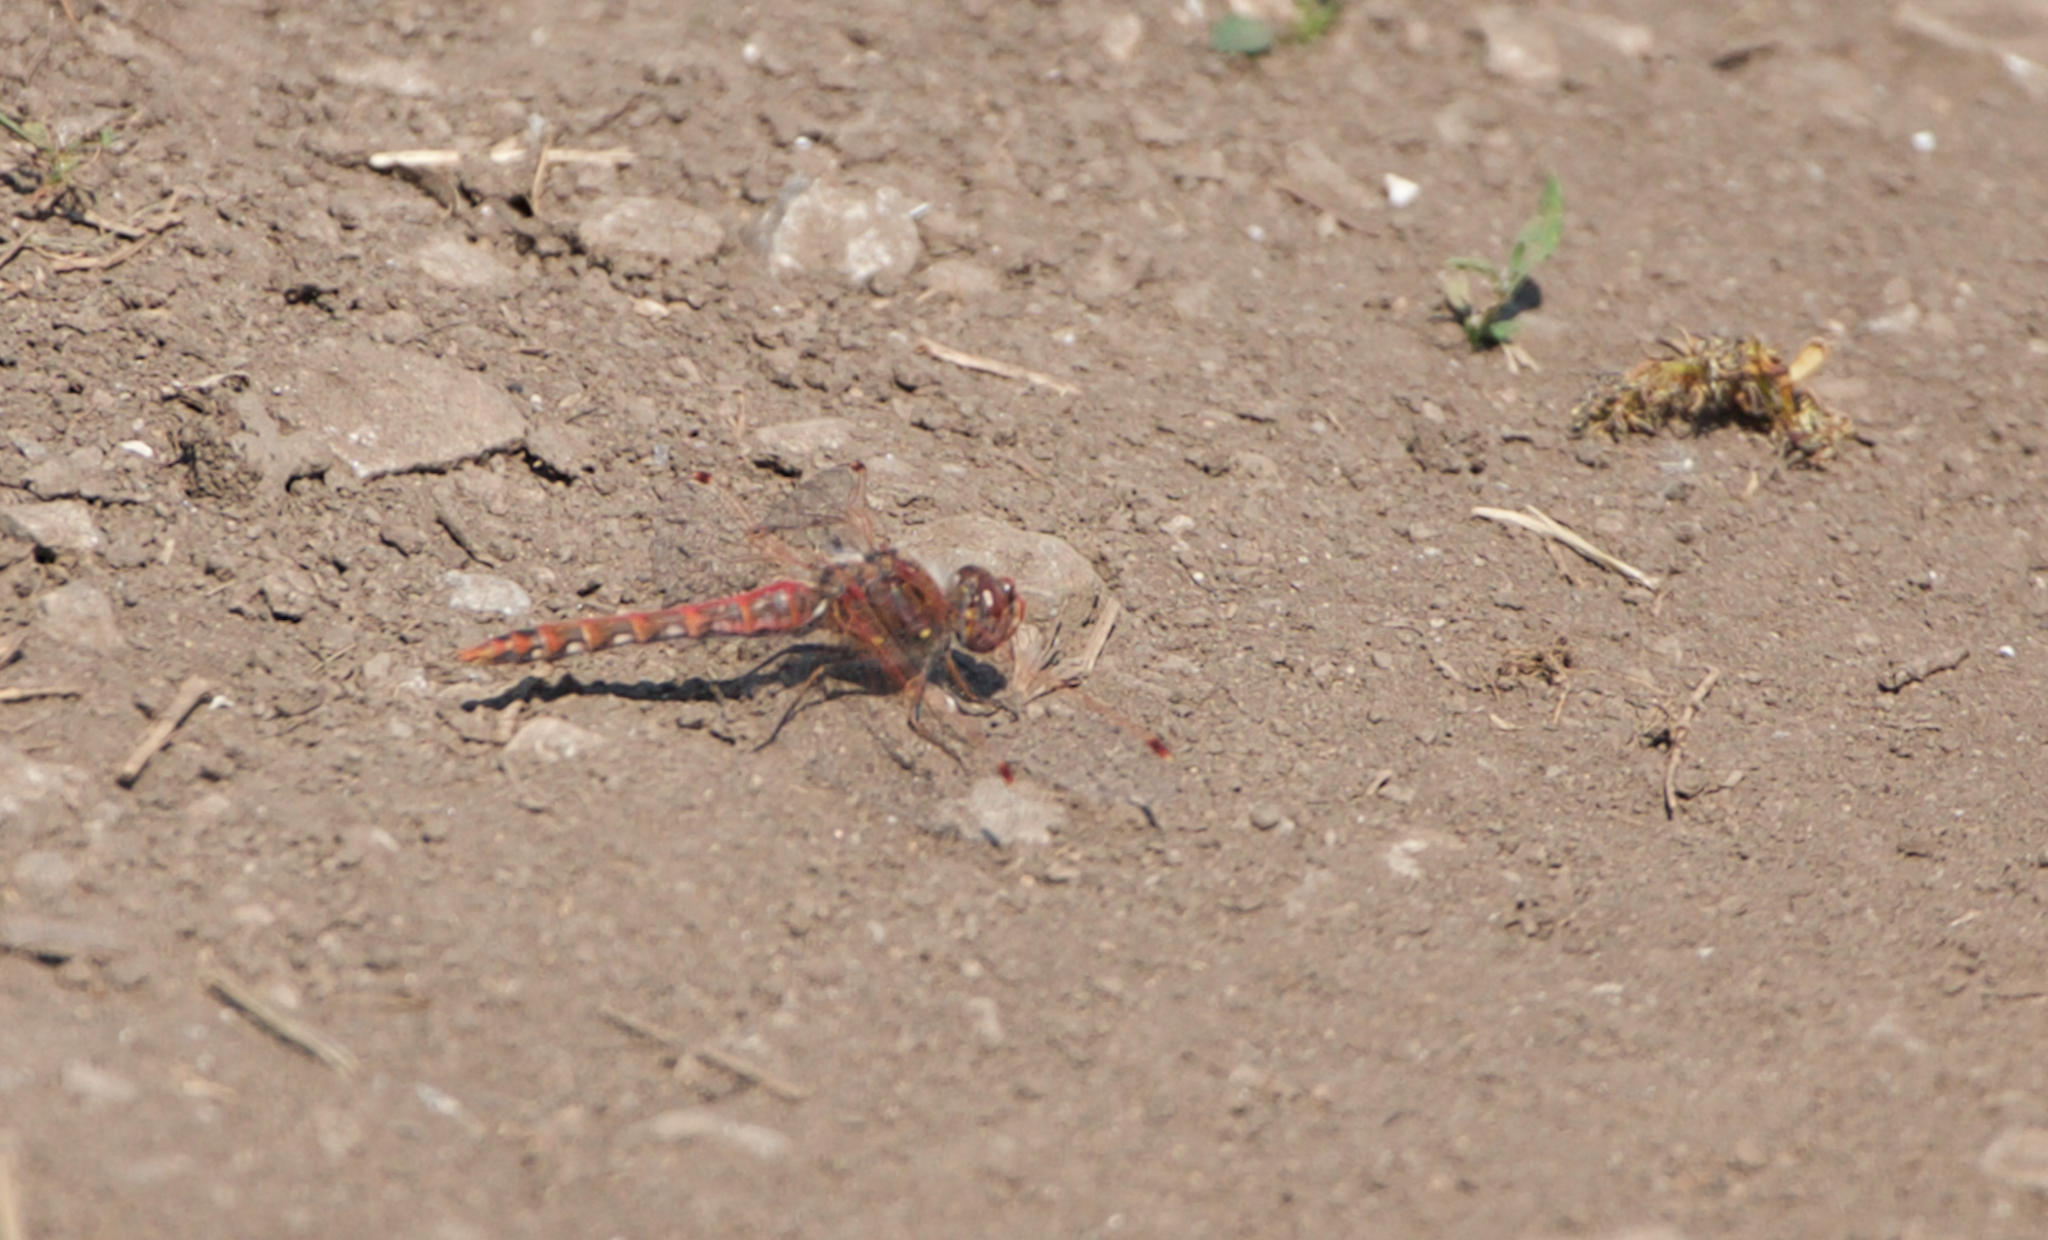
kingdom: Animalia
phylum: Arthropoda
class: Insecta
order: Odonata
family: Libellulidae
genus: Sympetrum
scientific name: Sympetrum corruptum
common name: Variegated meadowhawk
